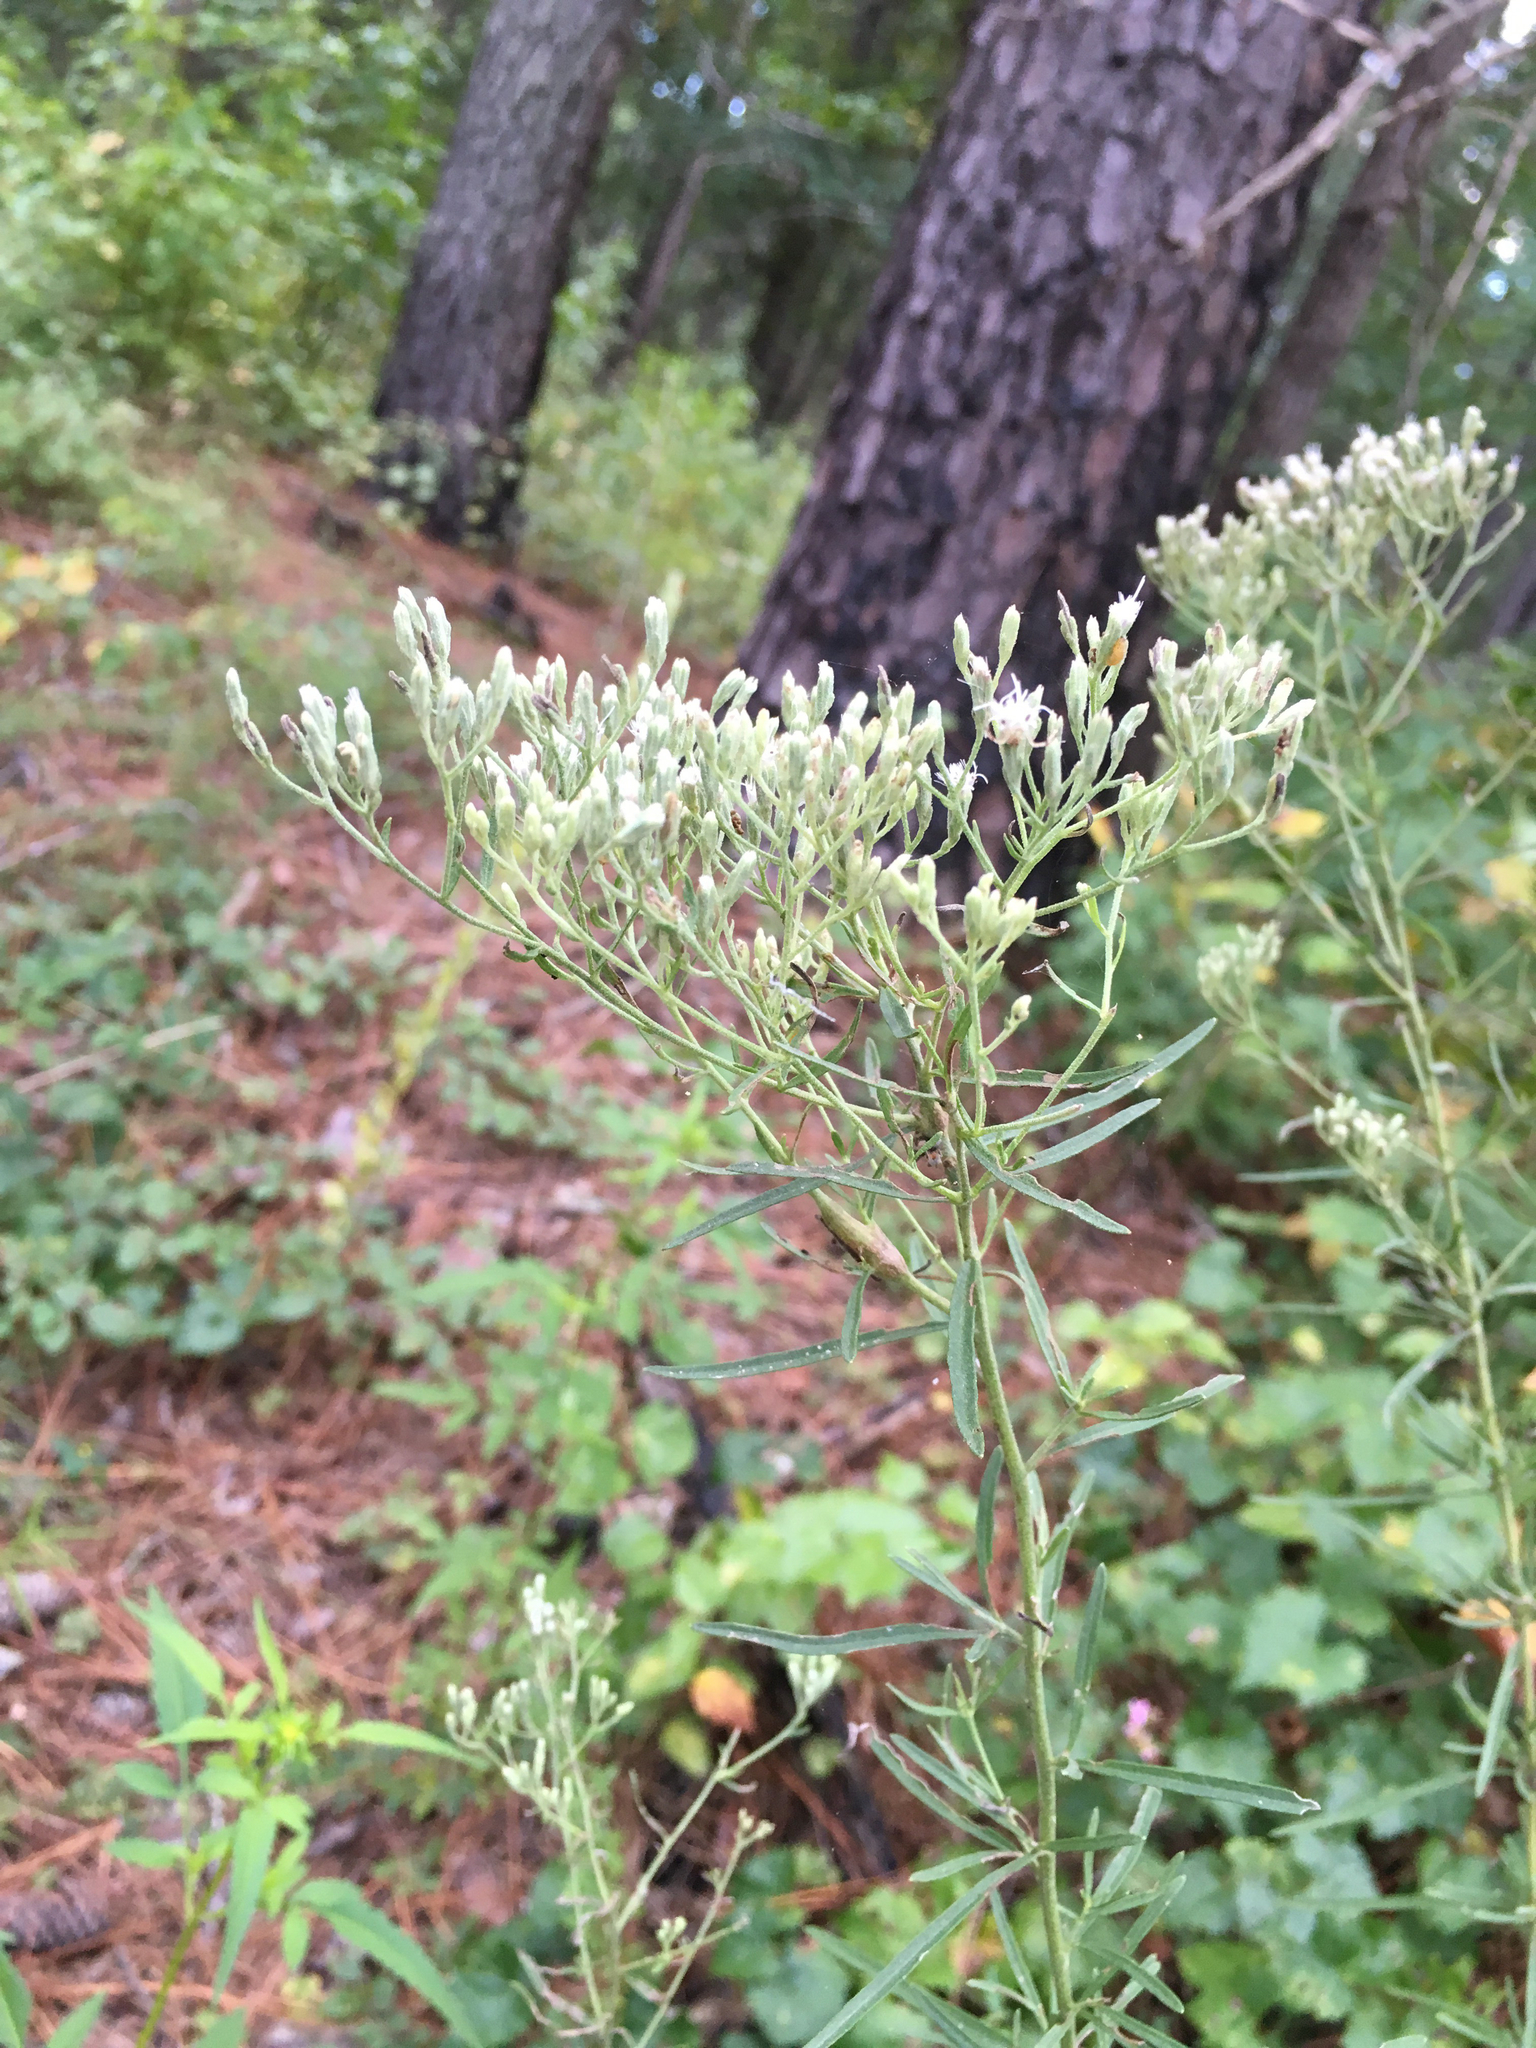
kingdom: Plantae
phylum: Tracheophyta
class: Magnoliopsida
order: Asterales
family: Asteraceae
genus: Eupatorium
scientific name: Eupatorium hyssopifolium
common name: Hyssop-leaf thoroughwort
